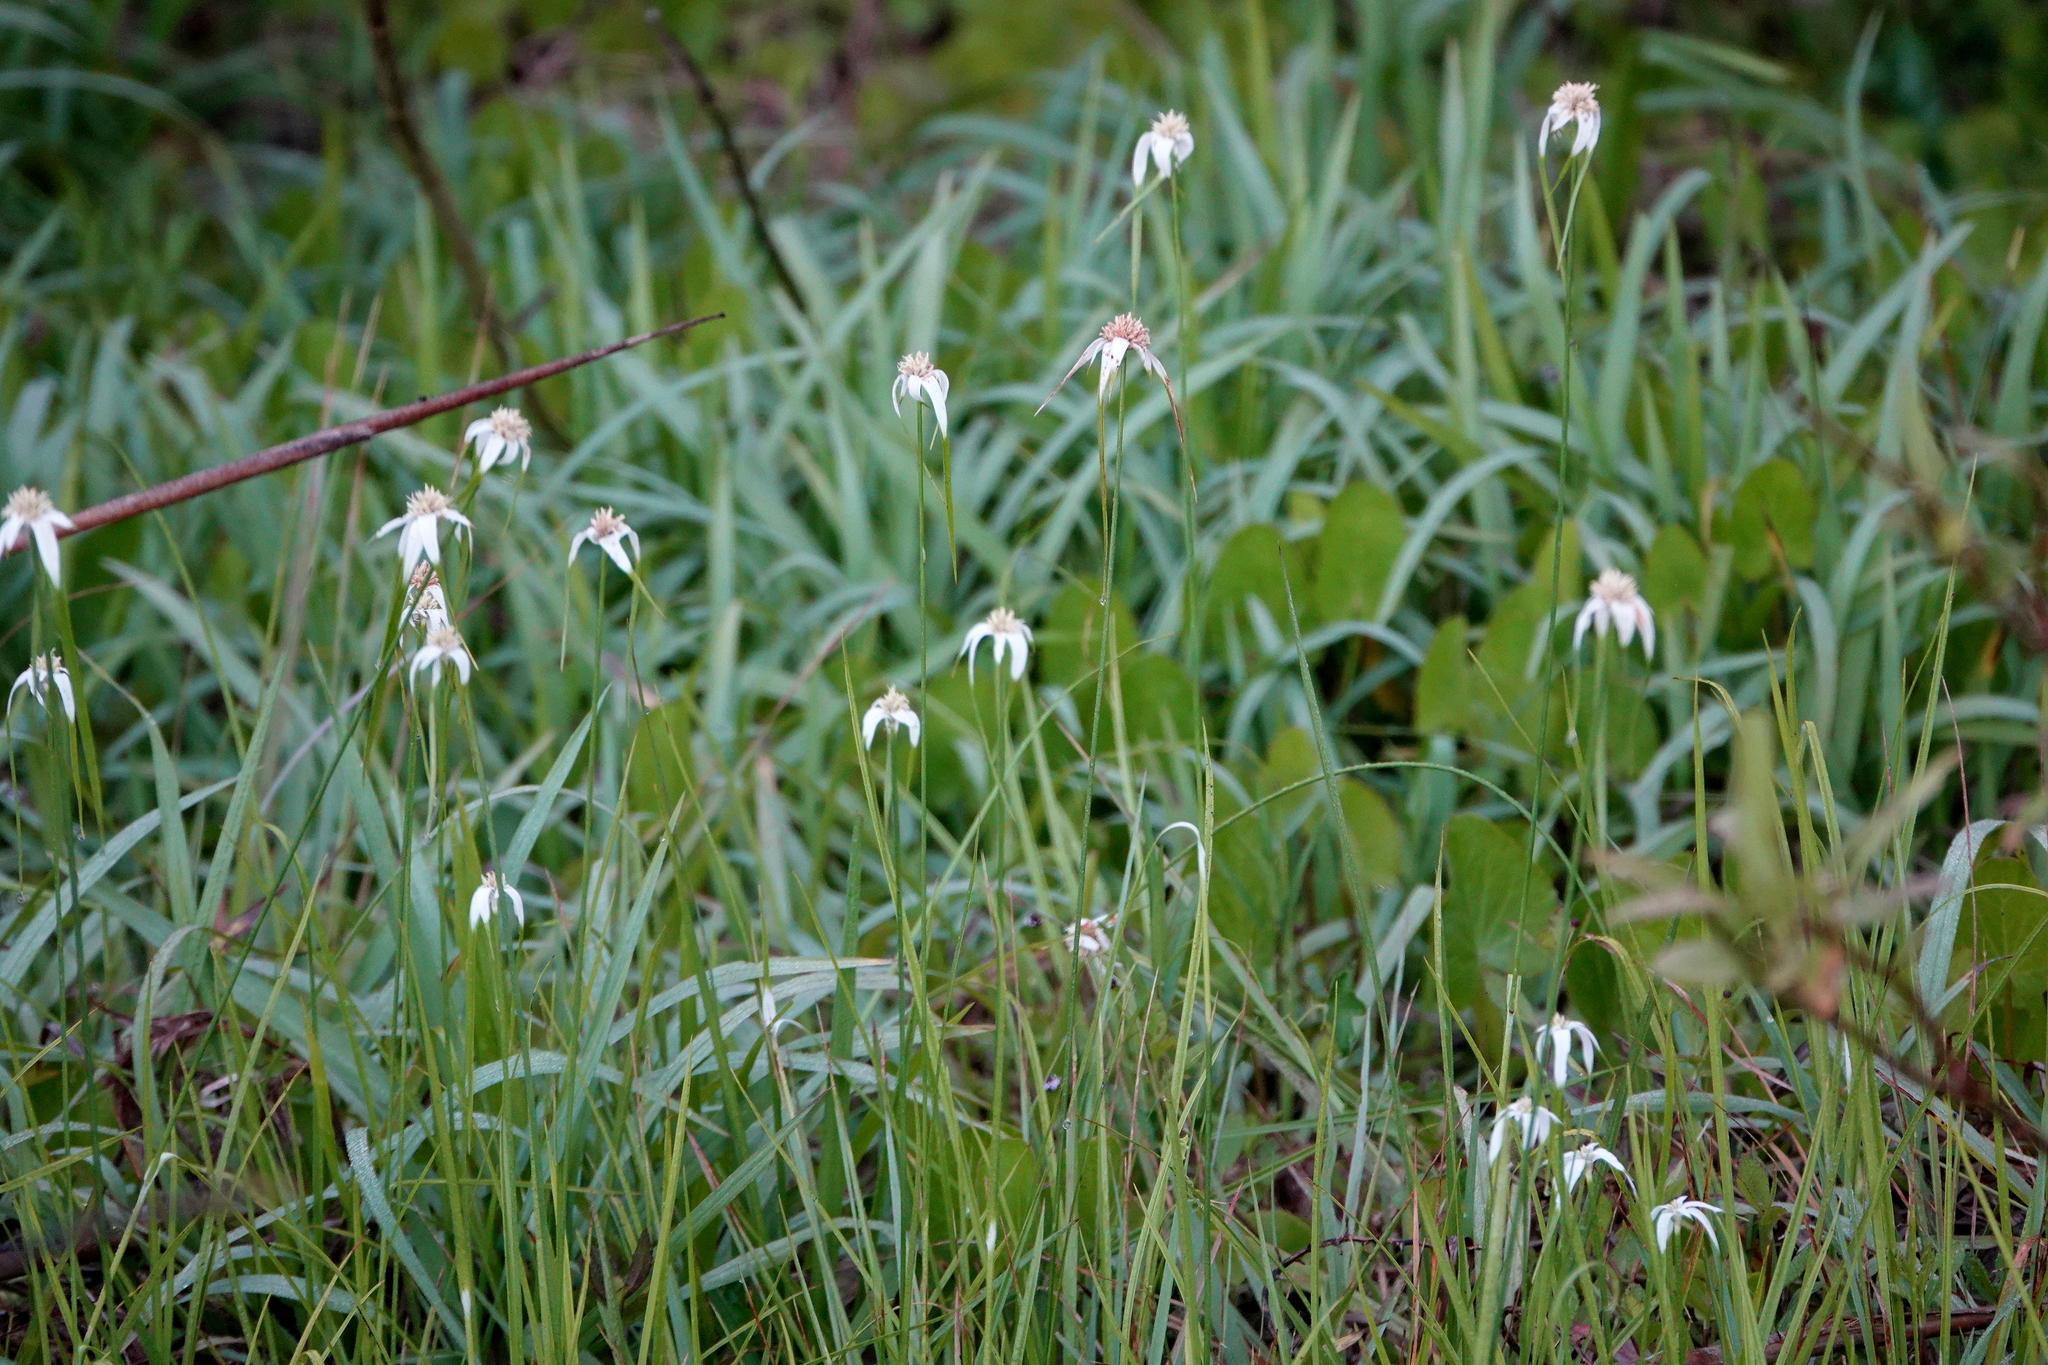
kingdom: Plantae
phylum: Tracheophyta
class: Liliopsida
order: Poales
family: Cyperaceae
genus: Rhynchospora
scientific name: Rhynchospora latifolia
